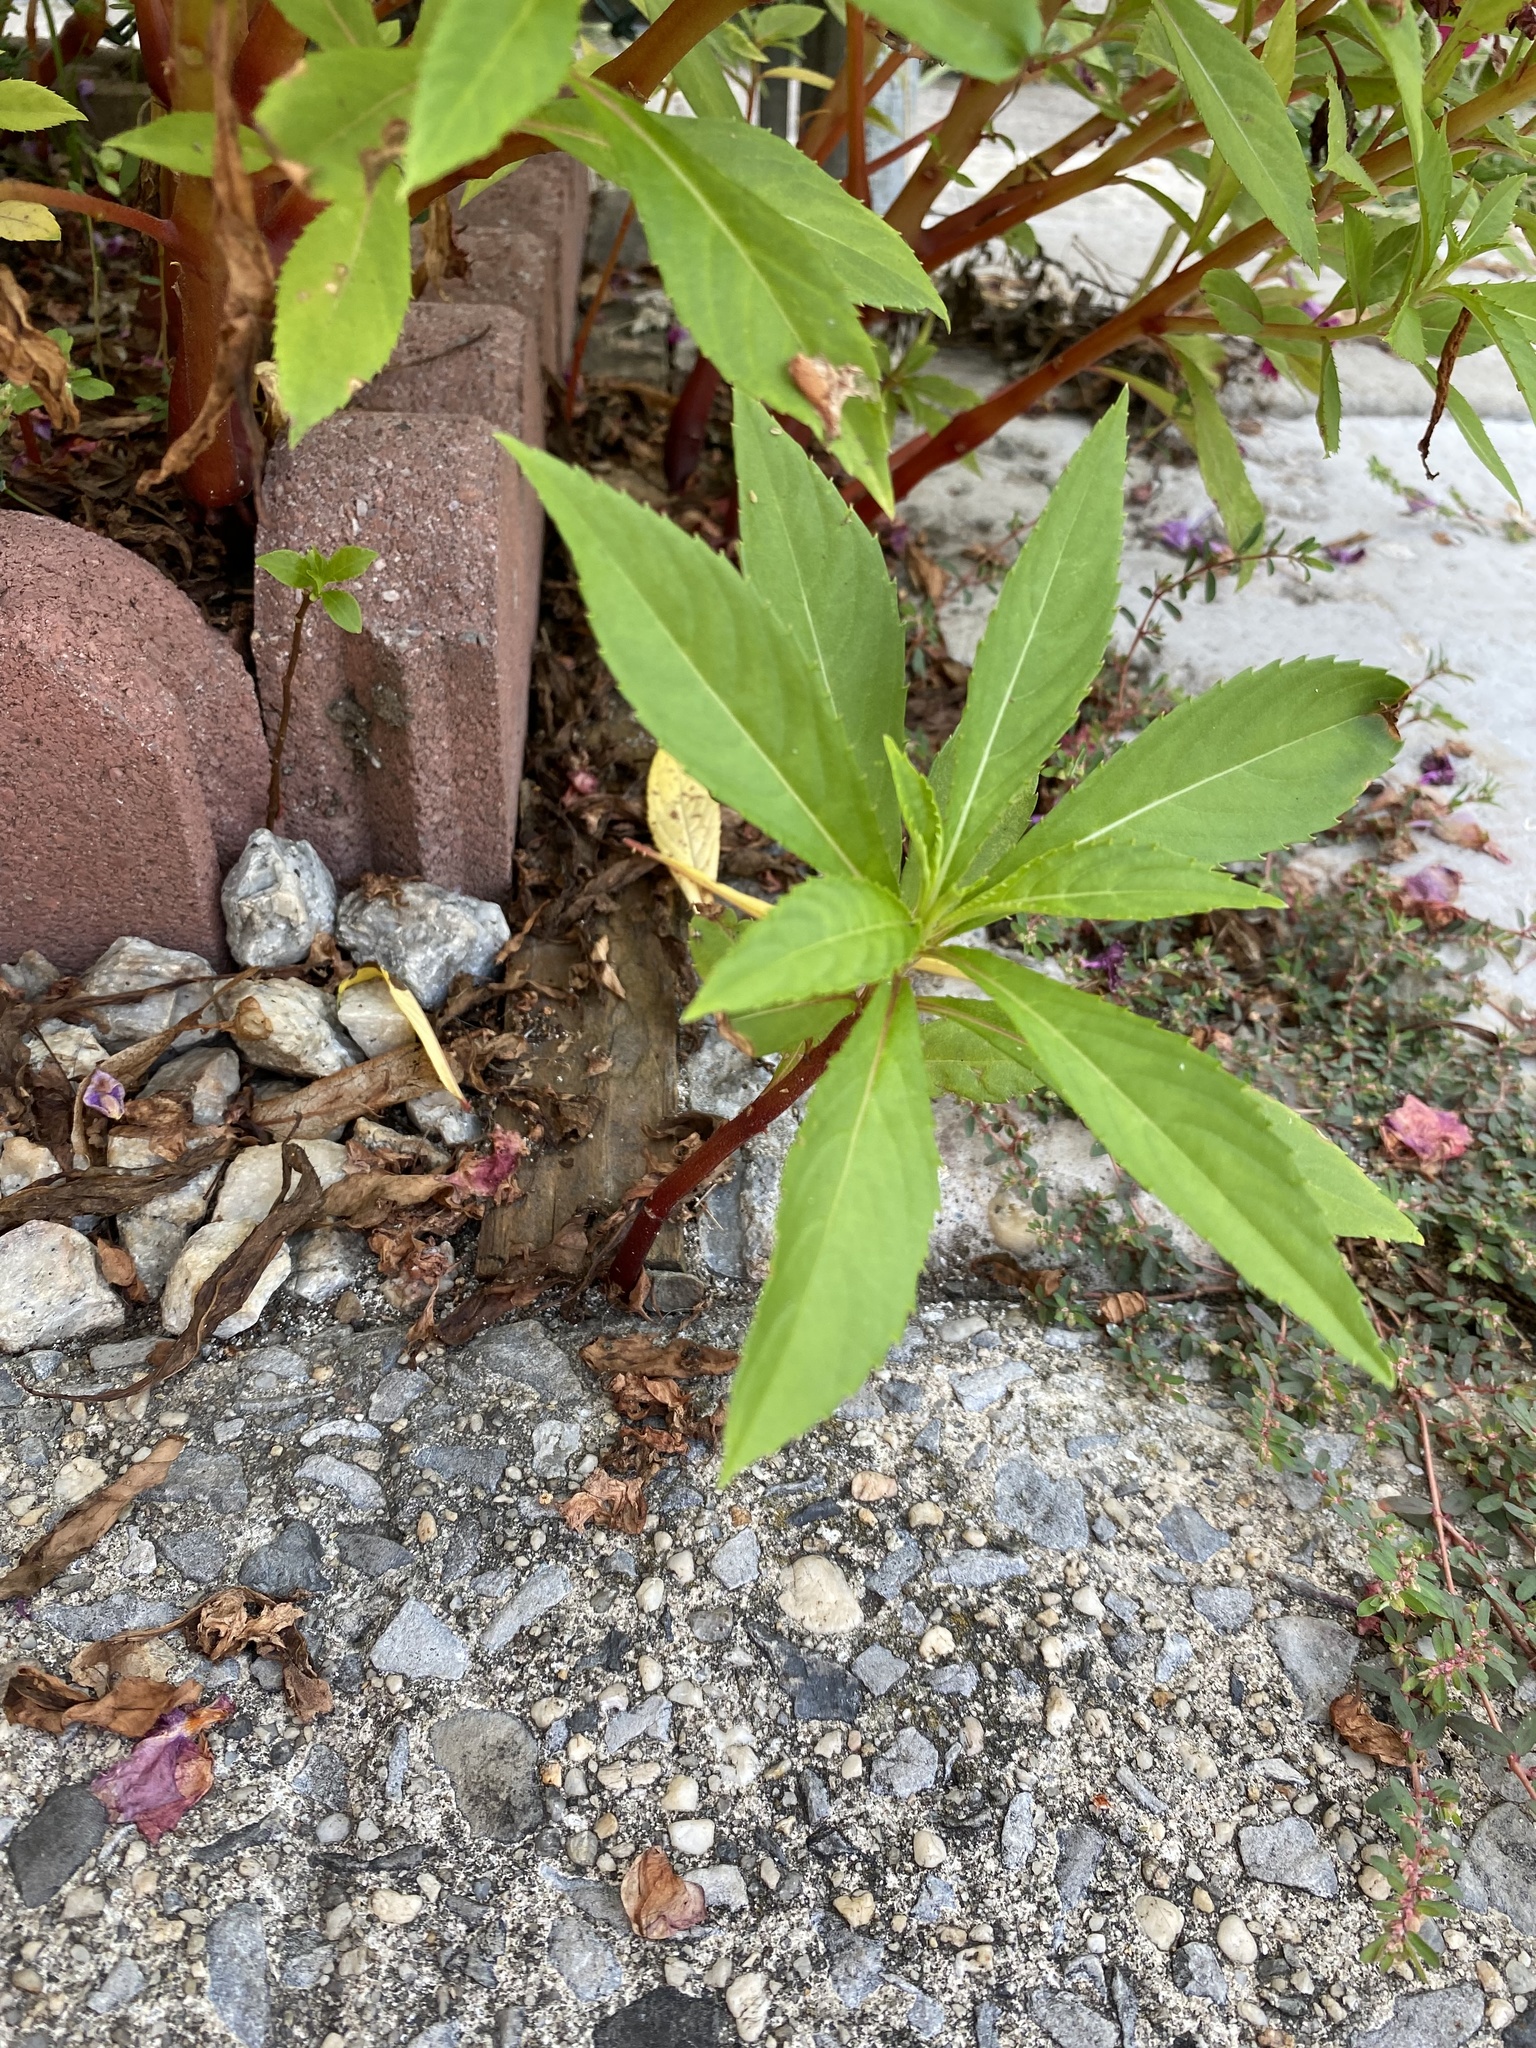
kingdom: Plantae
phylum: Tracheophyta
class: Magnoliopsida
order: Ericales
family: Balsaminaceae
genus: Impatiens
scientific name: Impatiens balsamina
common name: Balsam
